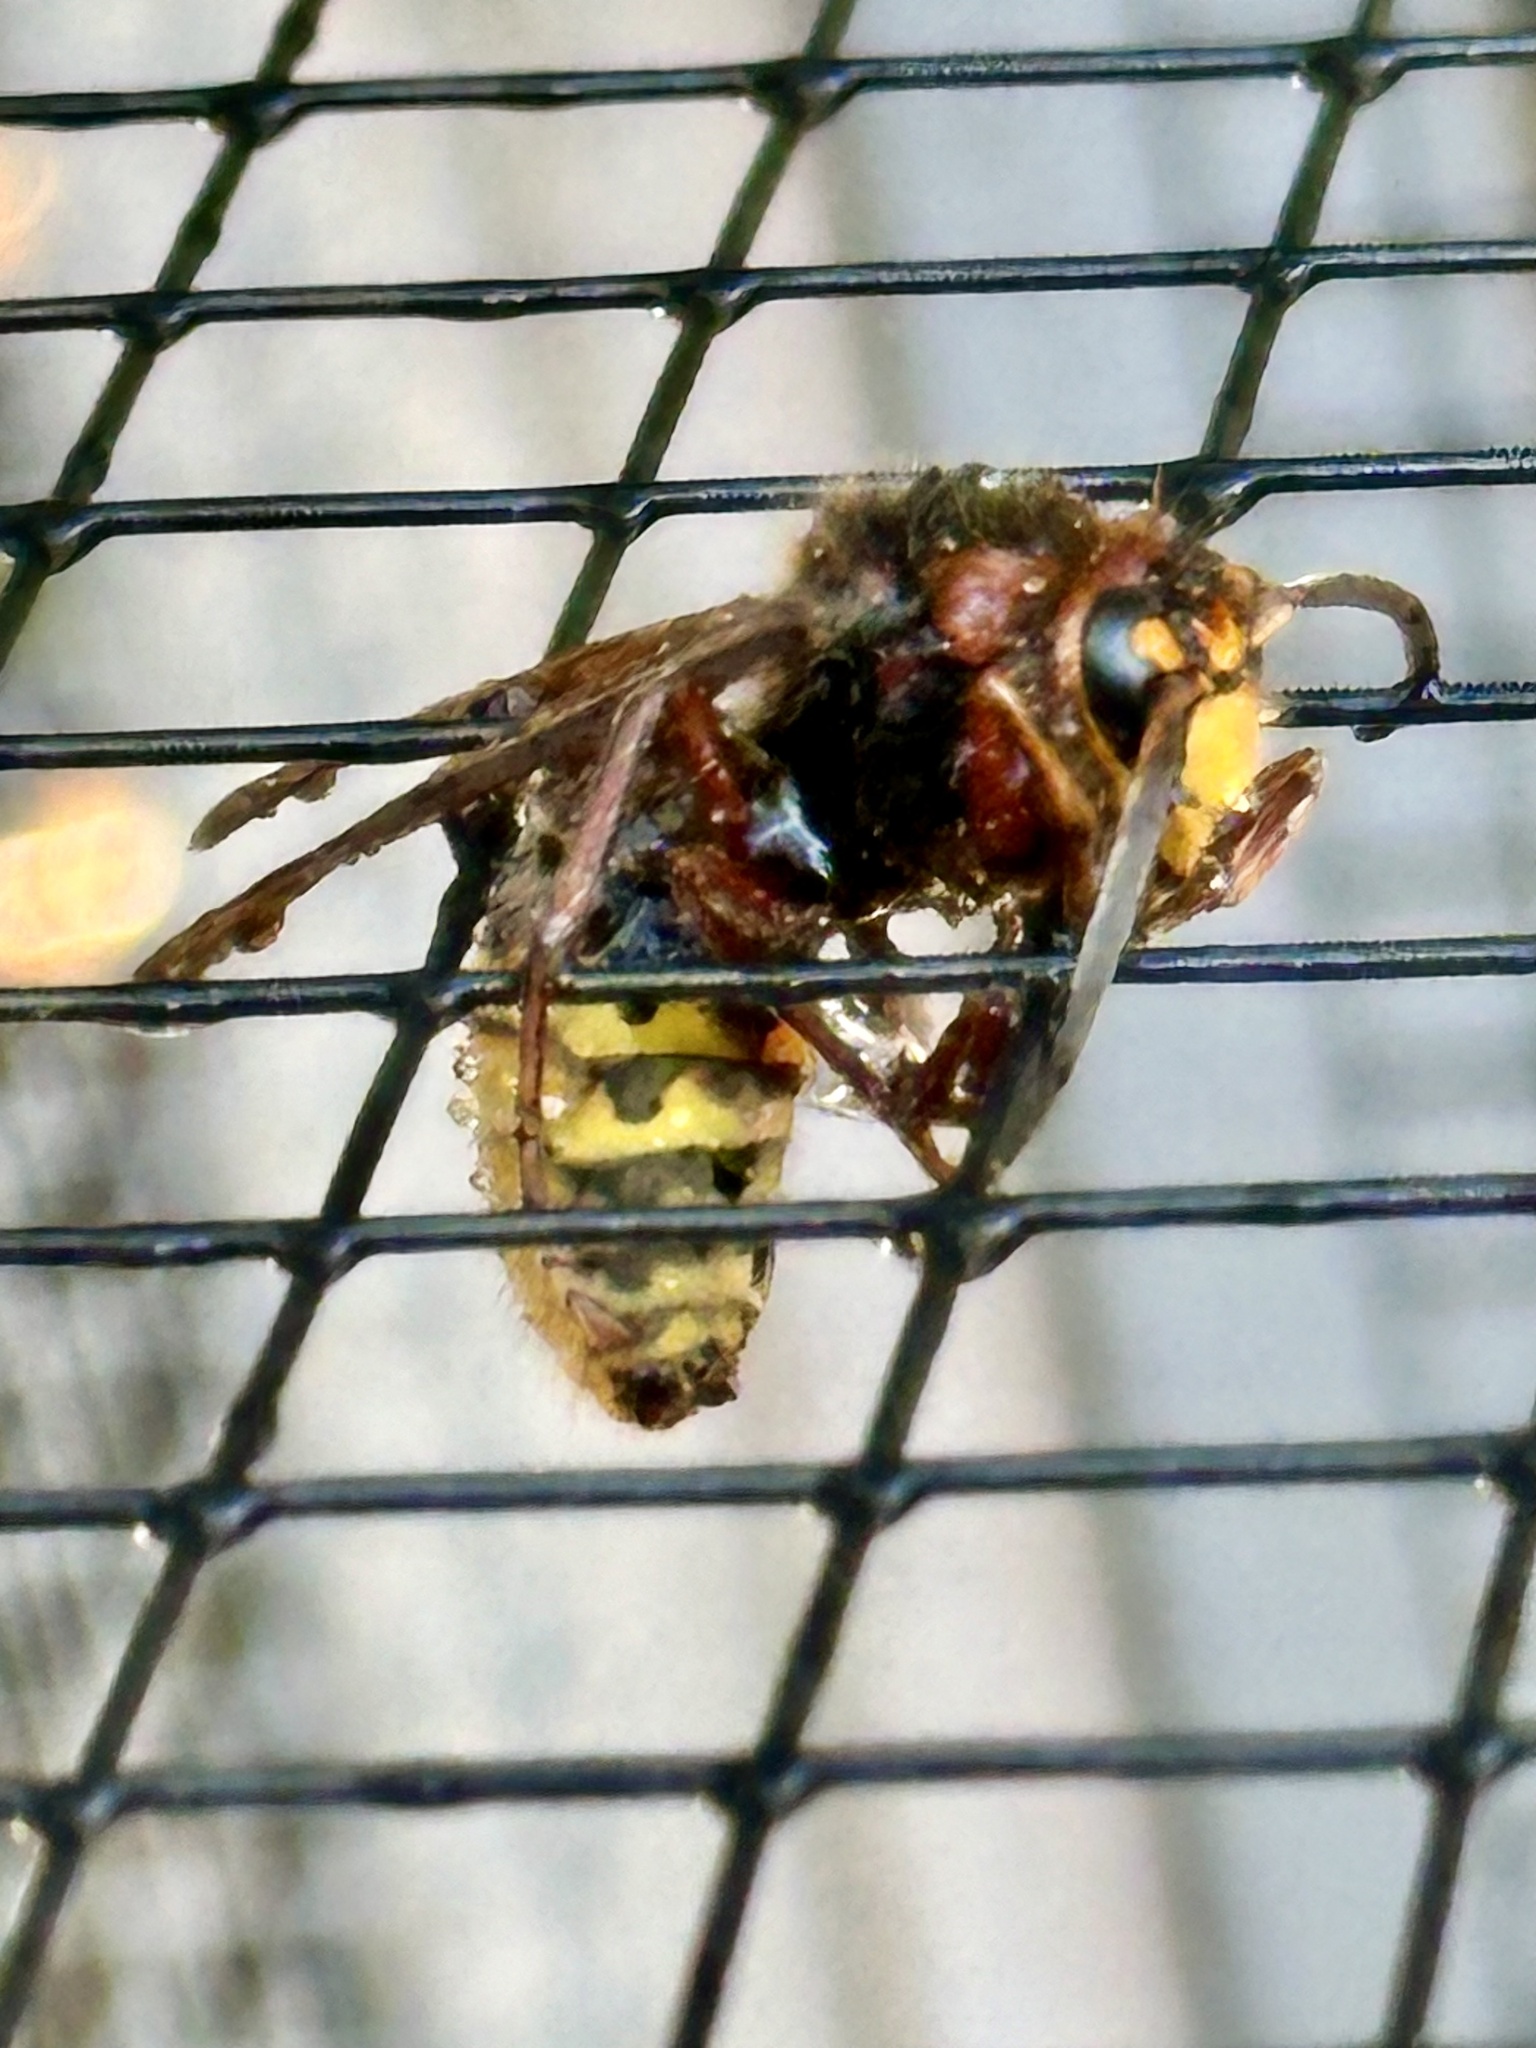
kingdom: Animalia
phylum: Arthropoda
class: Insecta
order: Hymenoptera
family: Vespidae
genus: Vespa
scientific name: Vespa crabro
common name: Hornet
